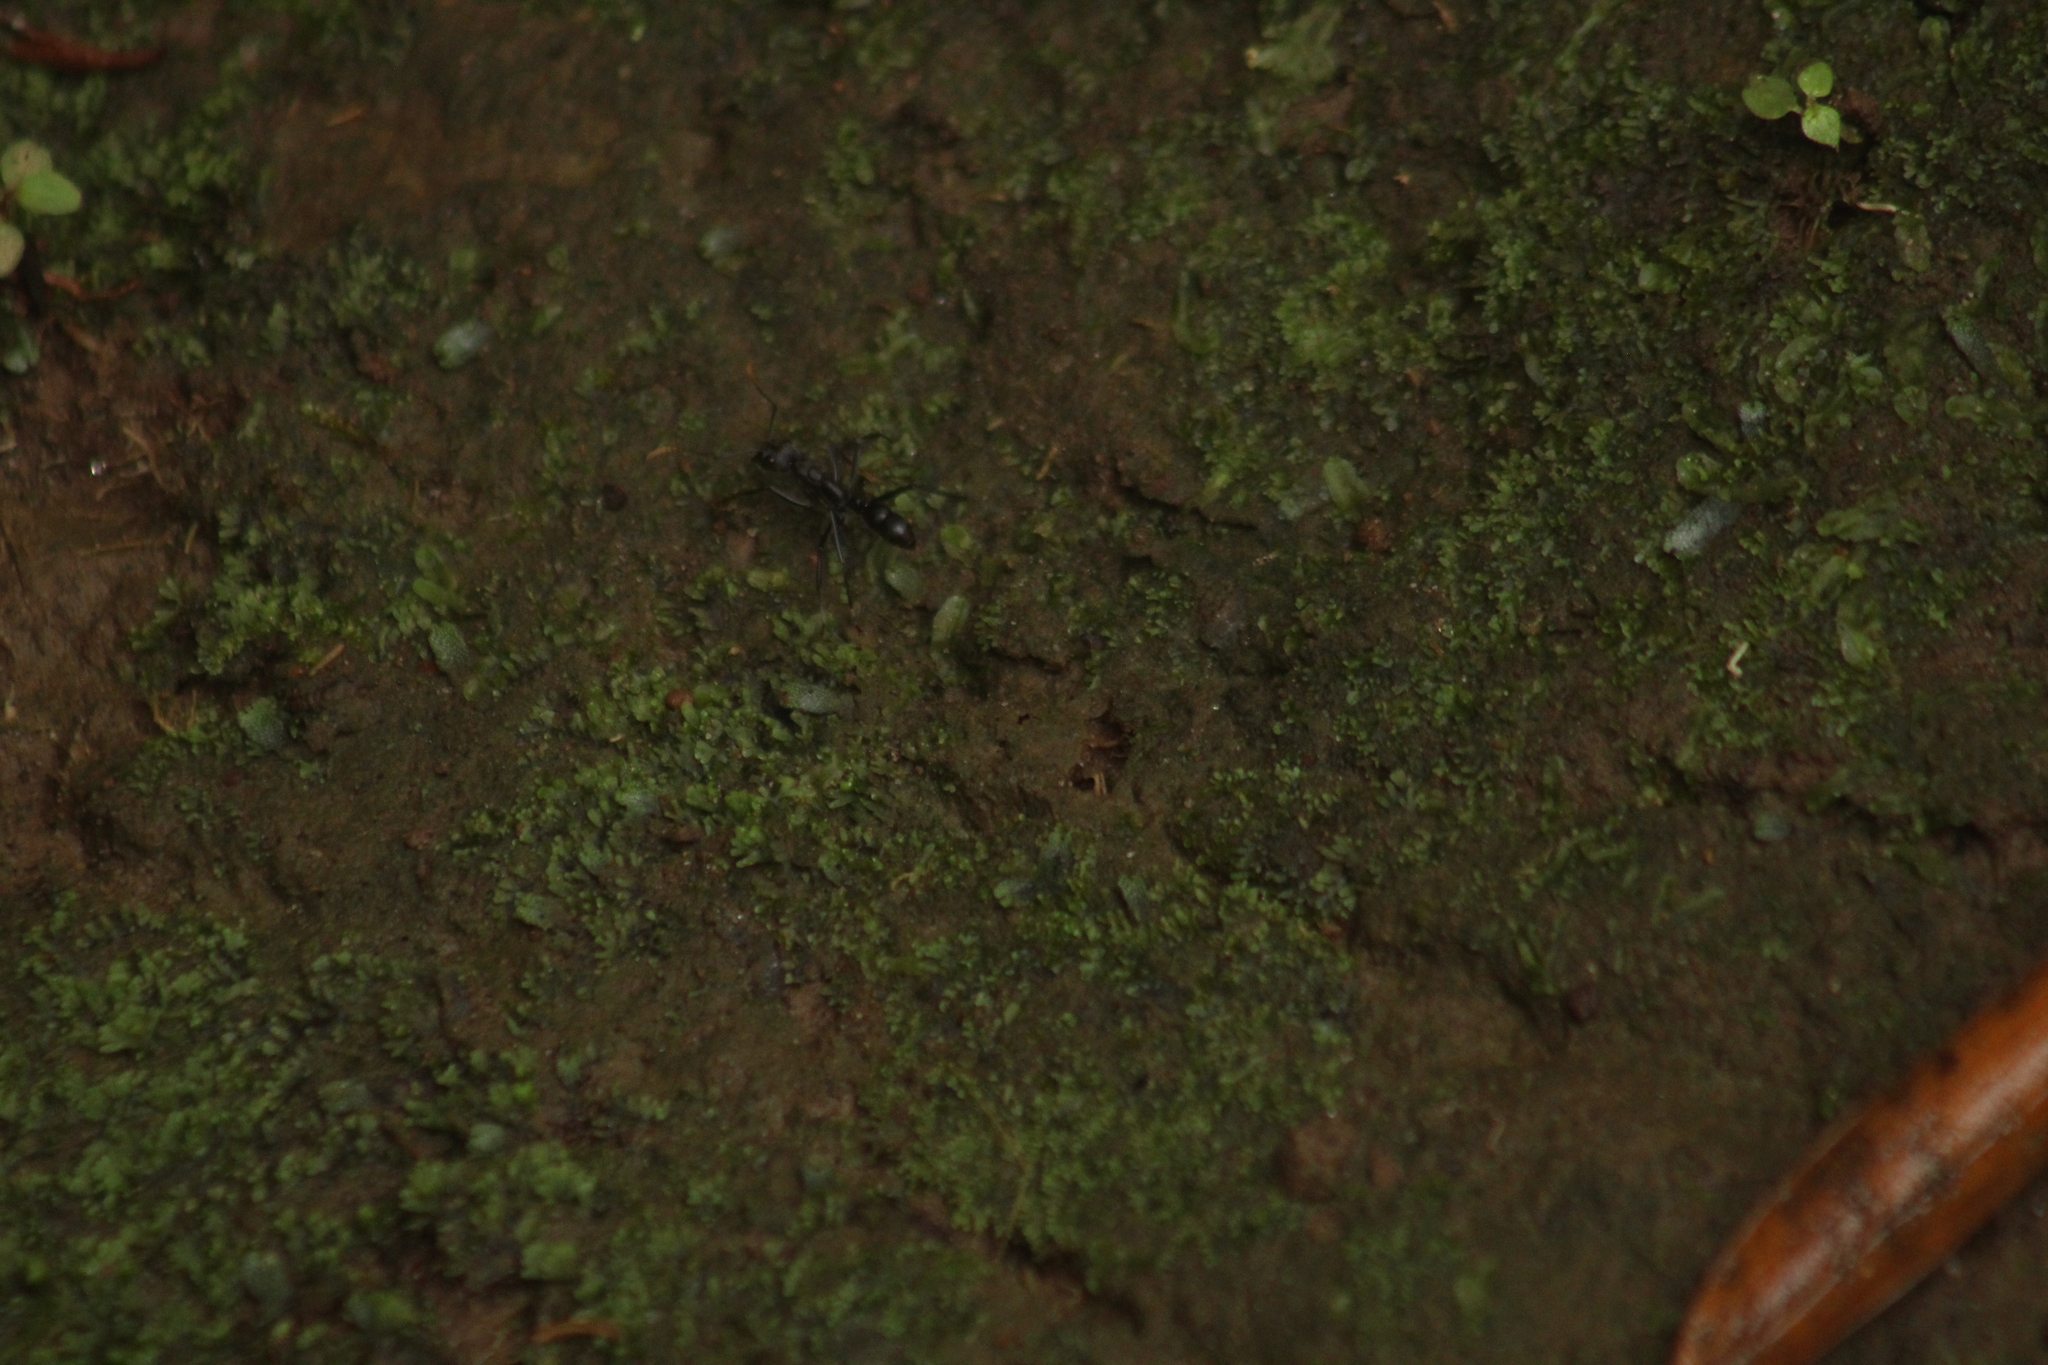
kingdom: Animalia
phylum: Arthropoda
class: Insecta
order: Hymenoptera
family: Formicidae
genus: Pachycondyla
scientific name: Pachycondyla apicalis
